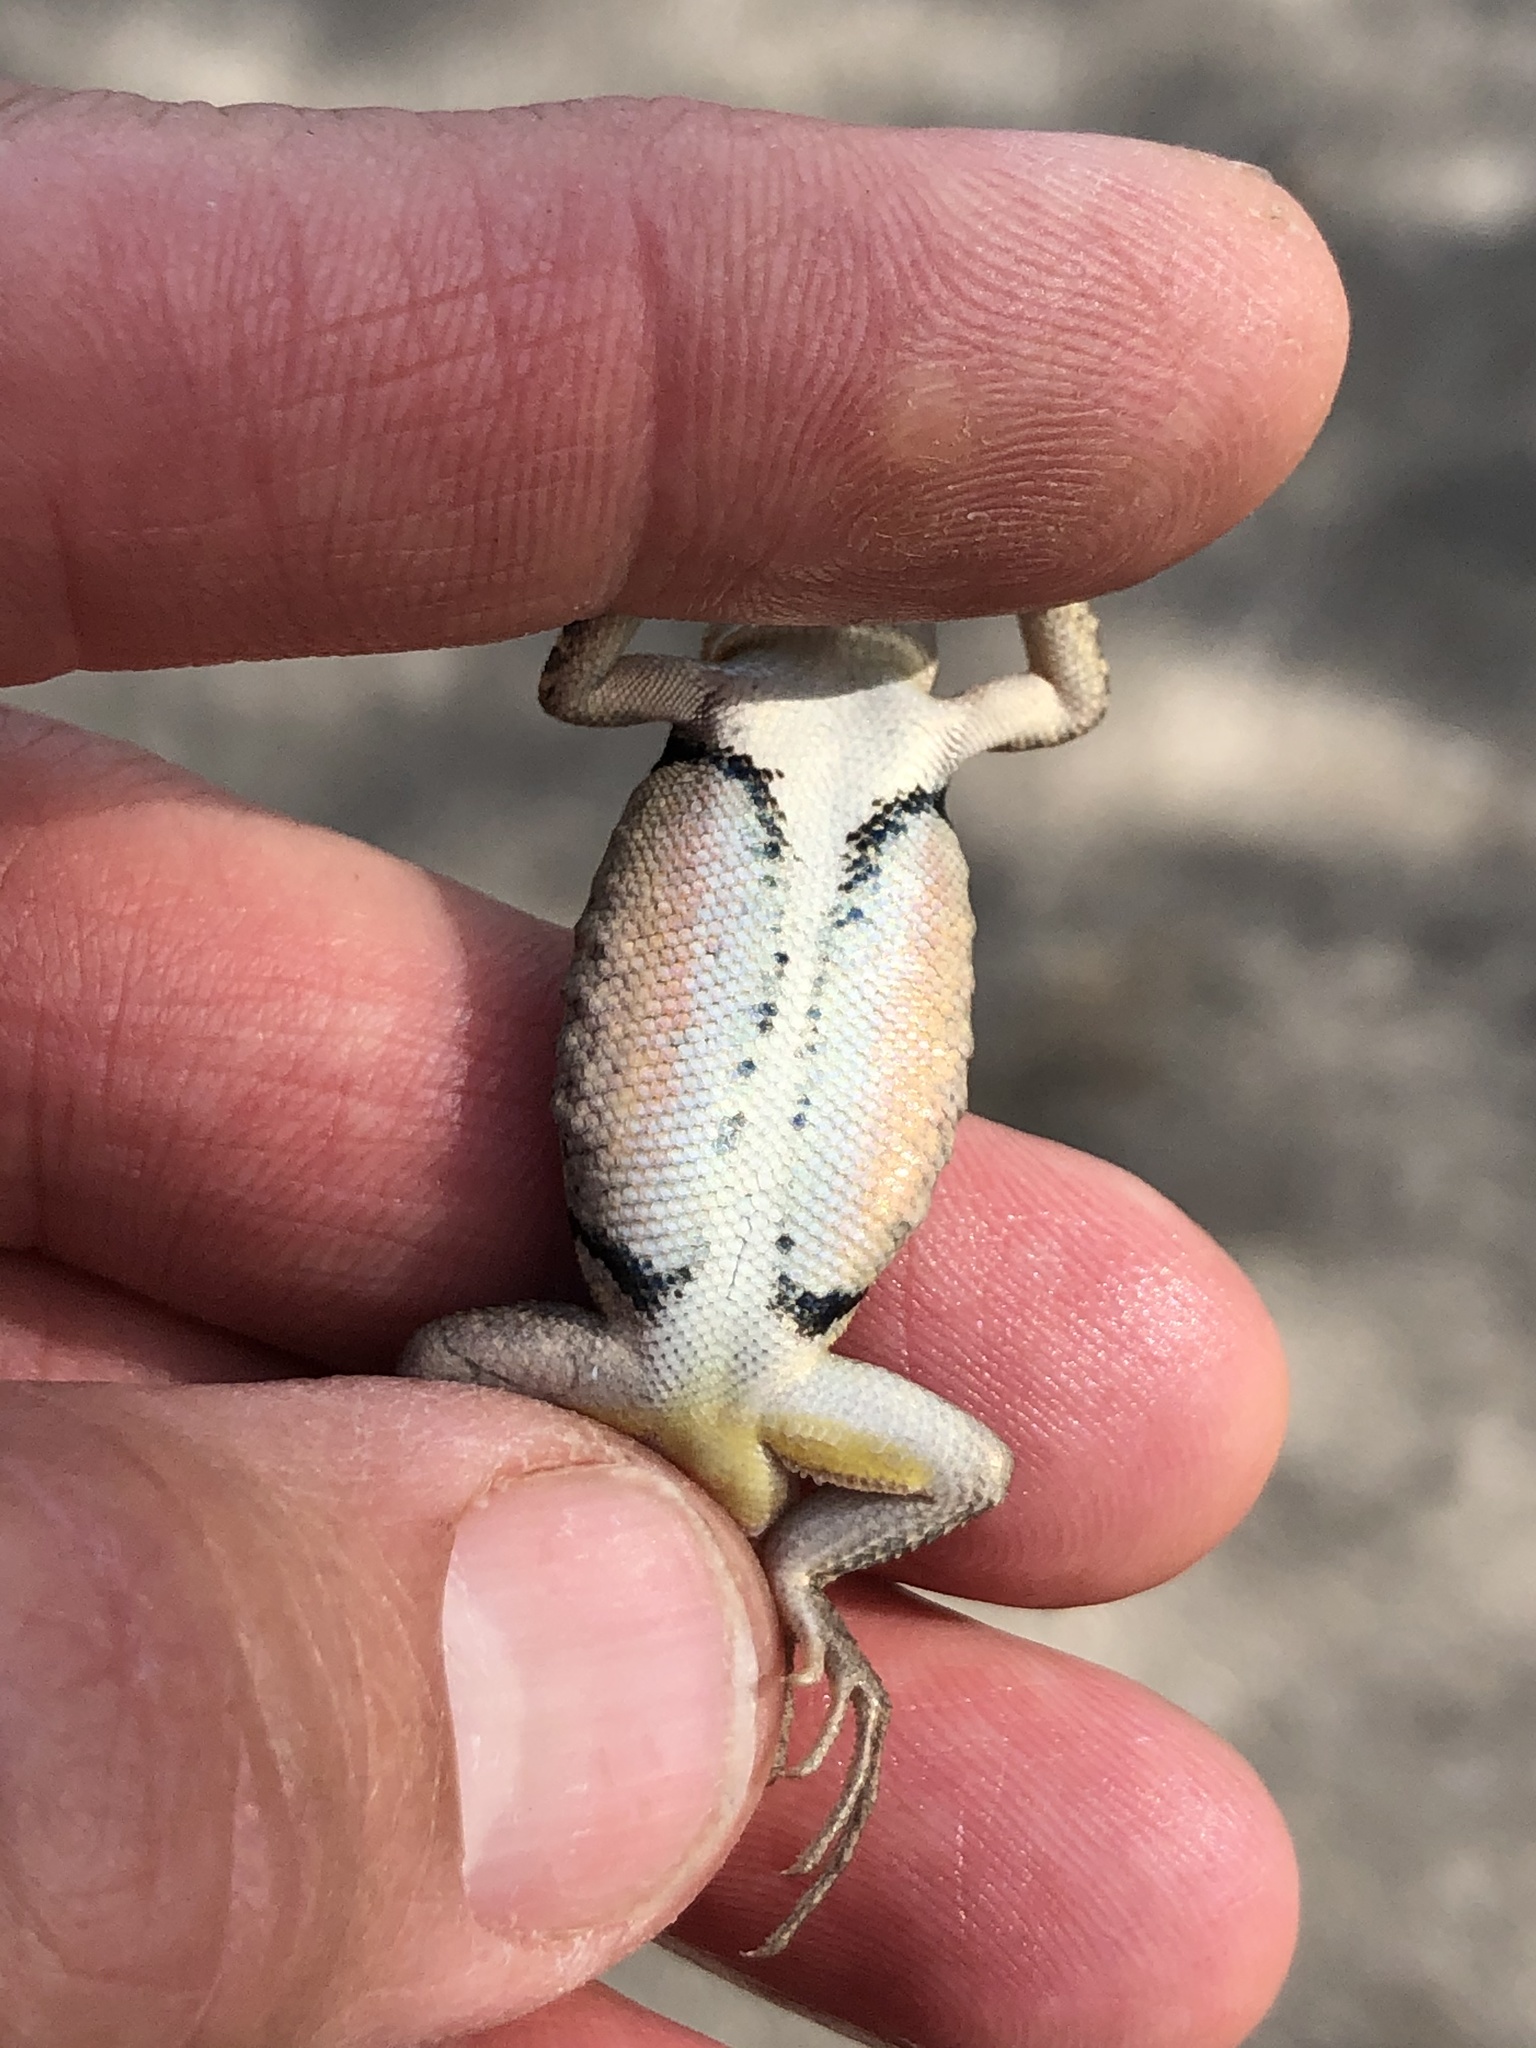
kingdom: Animalia
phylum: Chordata
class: Squamata
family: Phrynosomatidae
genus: Sceloporus
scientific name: Sceloporus variabilis
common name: Rosebelly lizard
